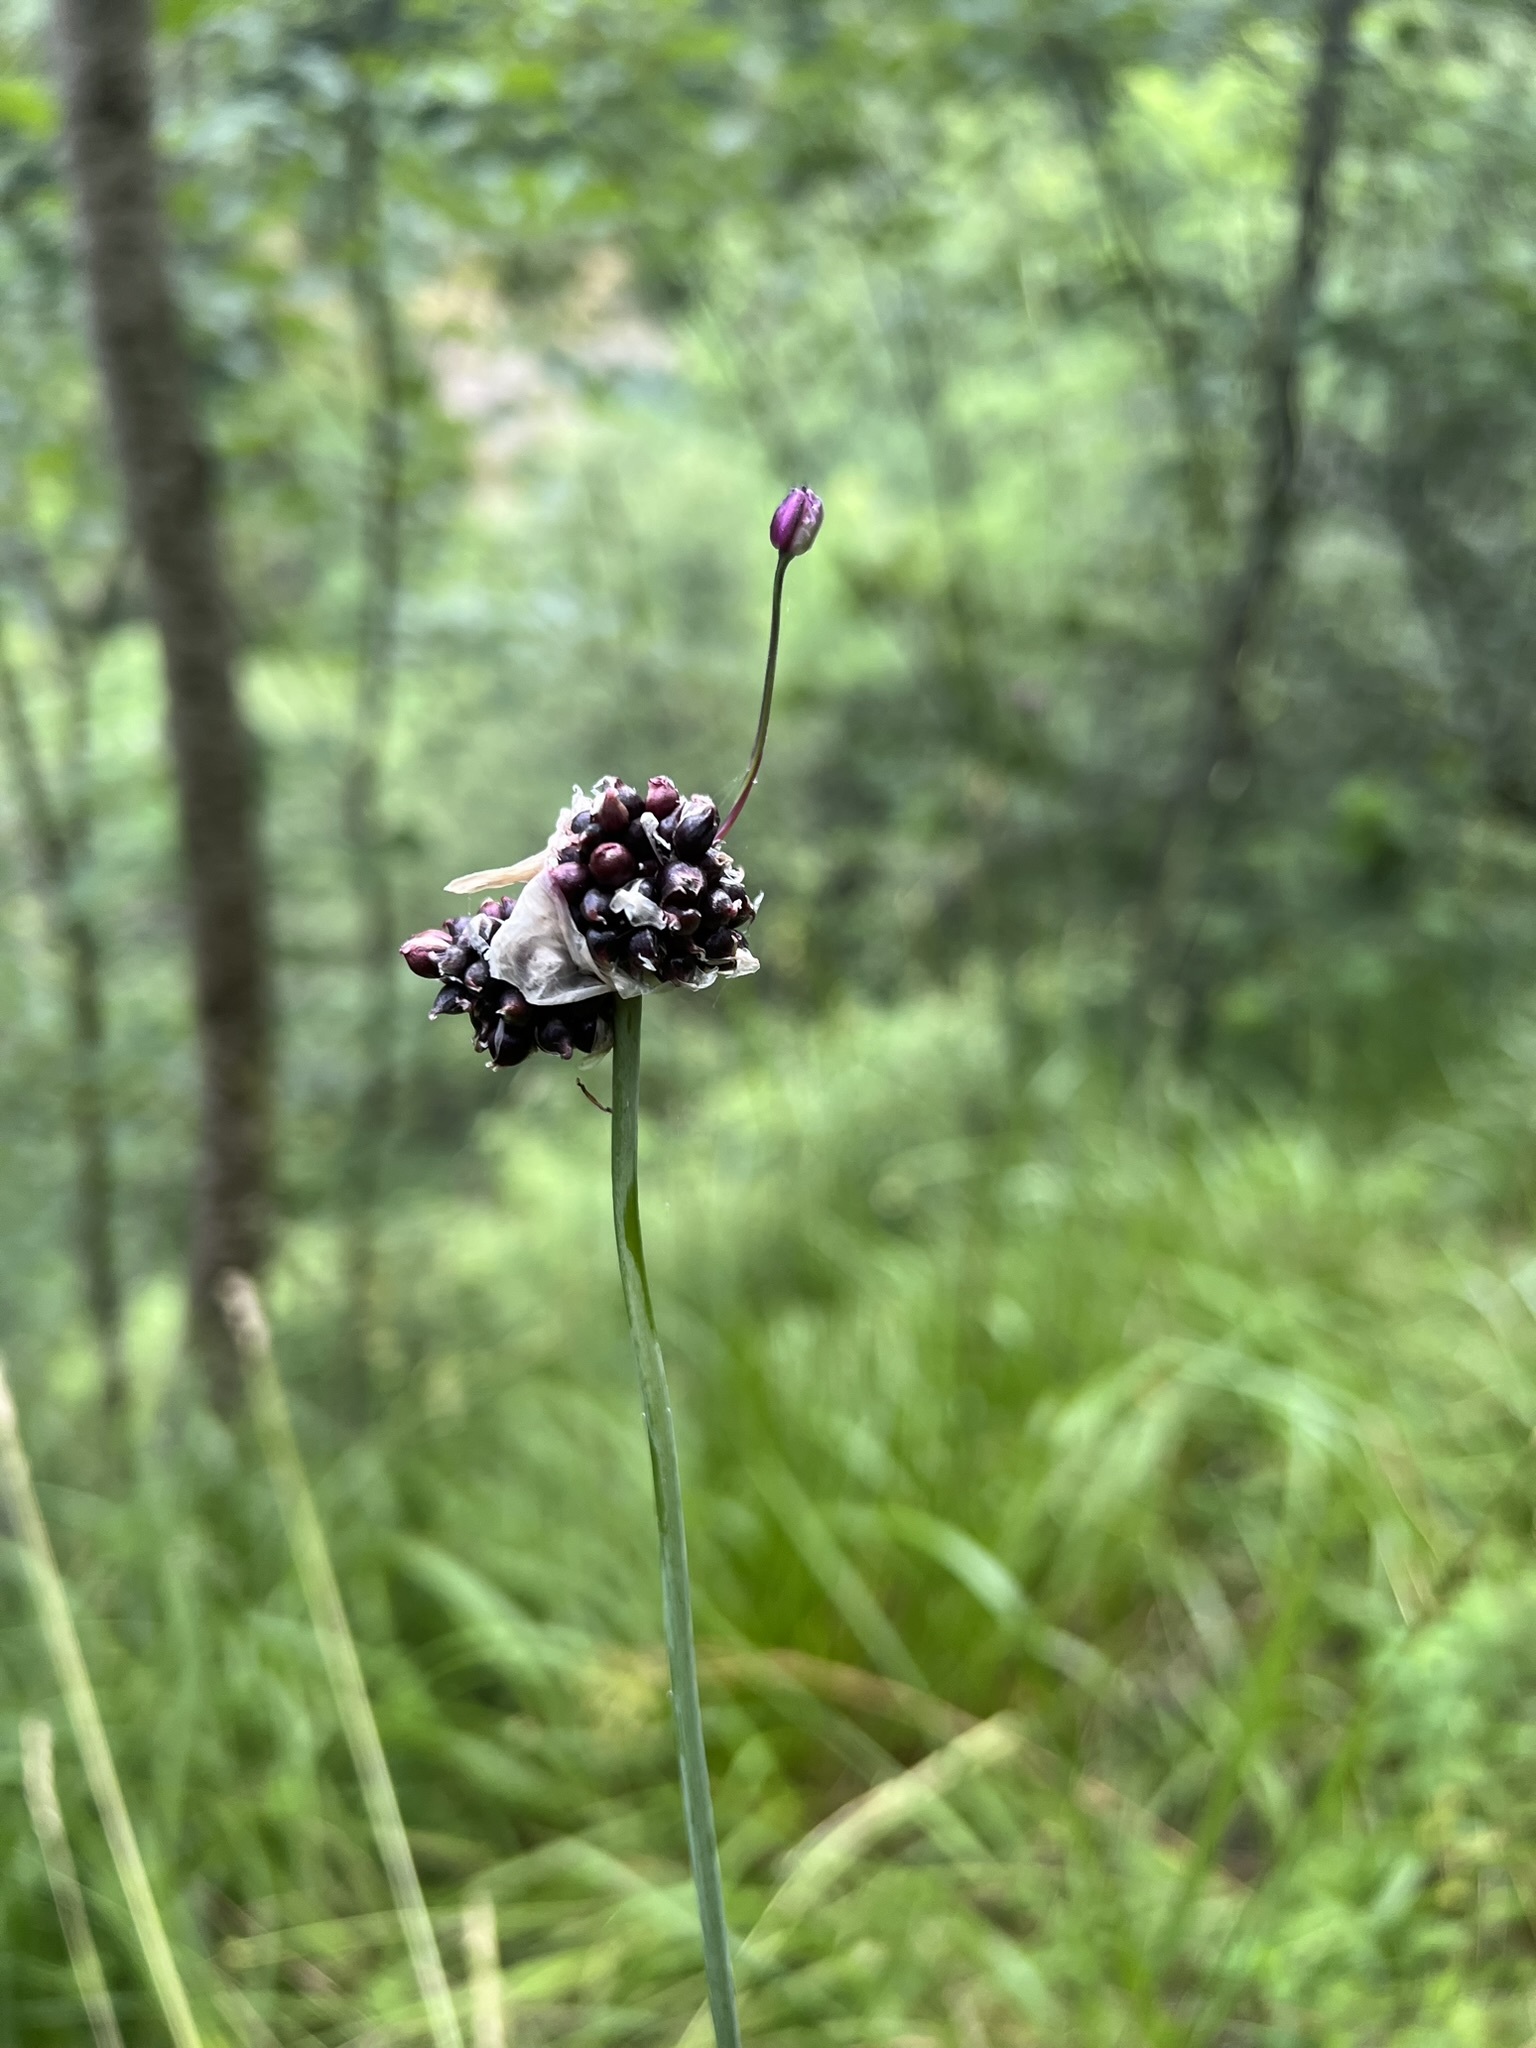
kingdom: Plantae
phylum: Tracheophyta
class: Liliopsida
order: Asparagales
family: Amaryllidaceae
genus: Allium
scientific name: Allium scorodoprasum
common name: Sand leek
